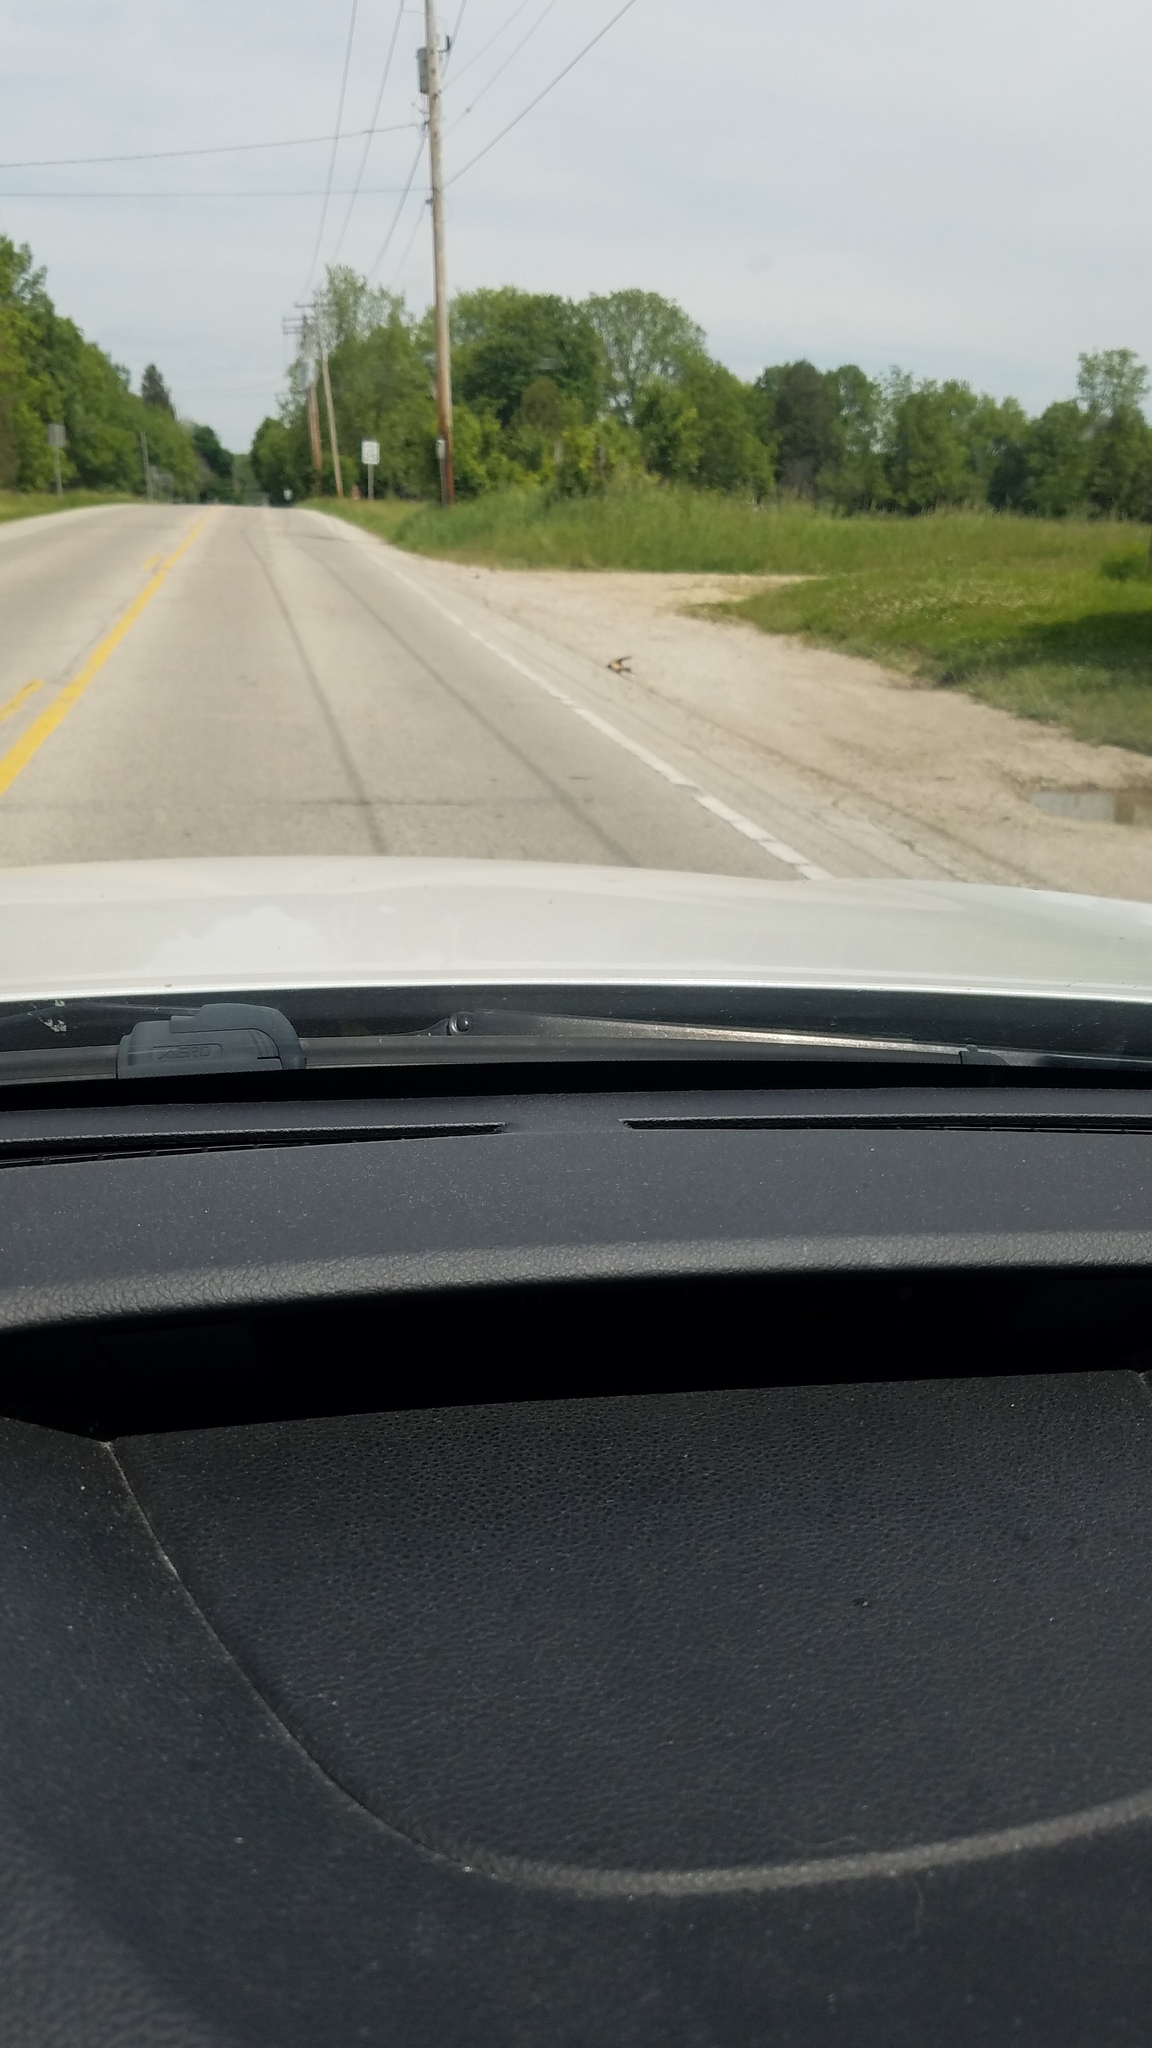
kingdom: Animalia
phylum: Chordata
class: Aves
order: Passeriformes
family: Hirundinidae
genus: Hirundo
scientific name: Hirundo rustica
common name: Barn swallow
